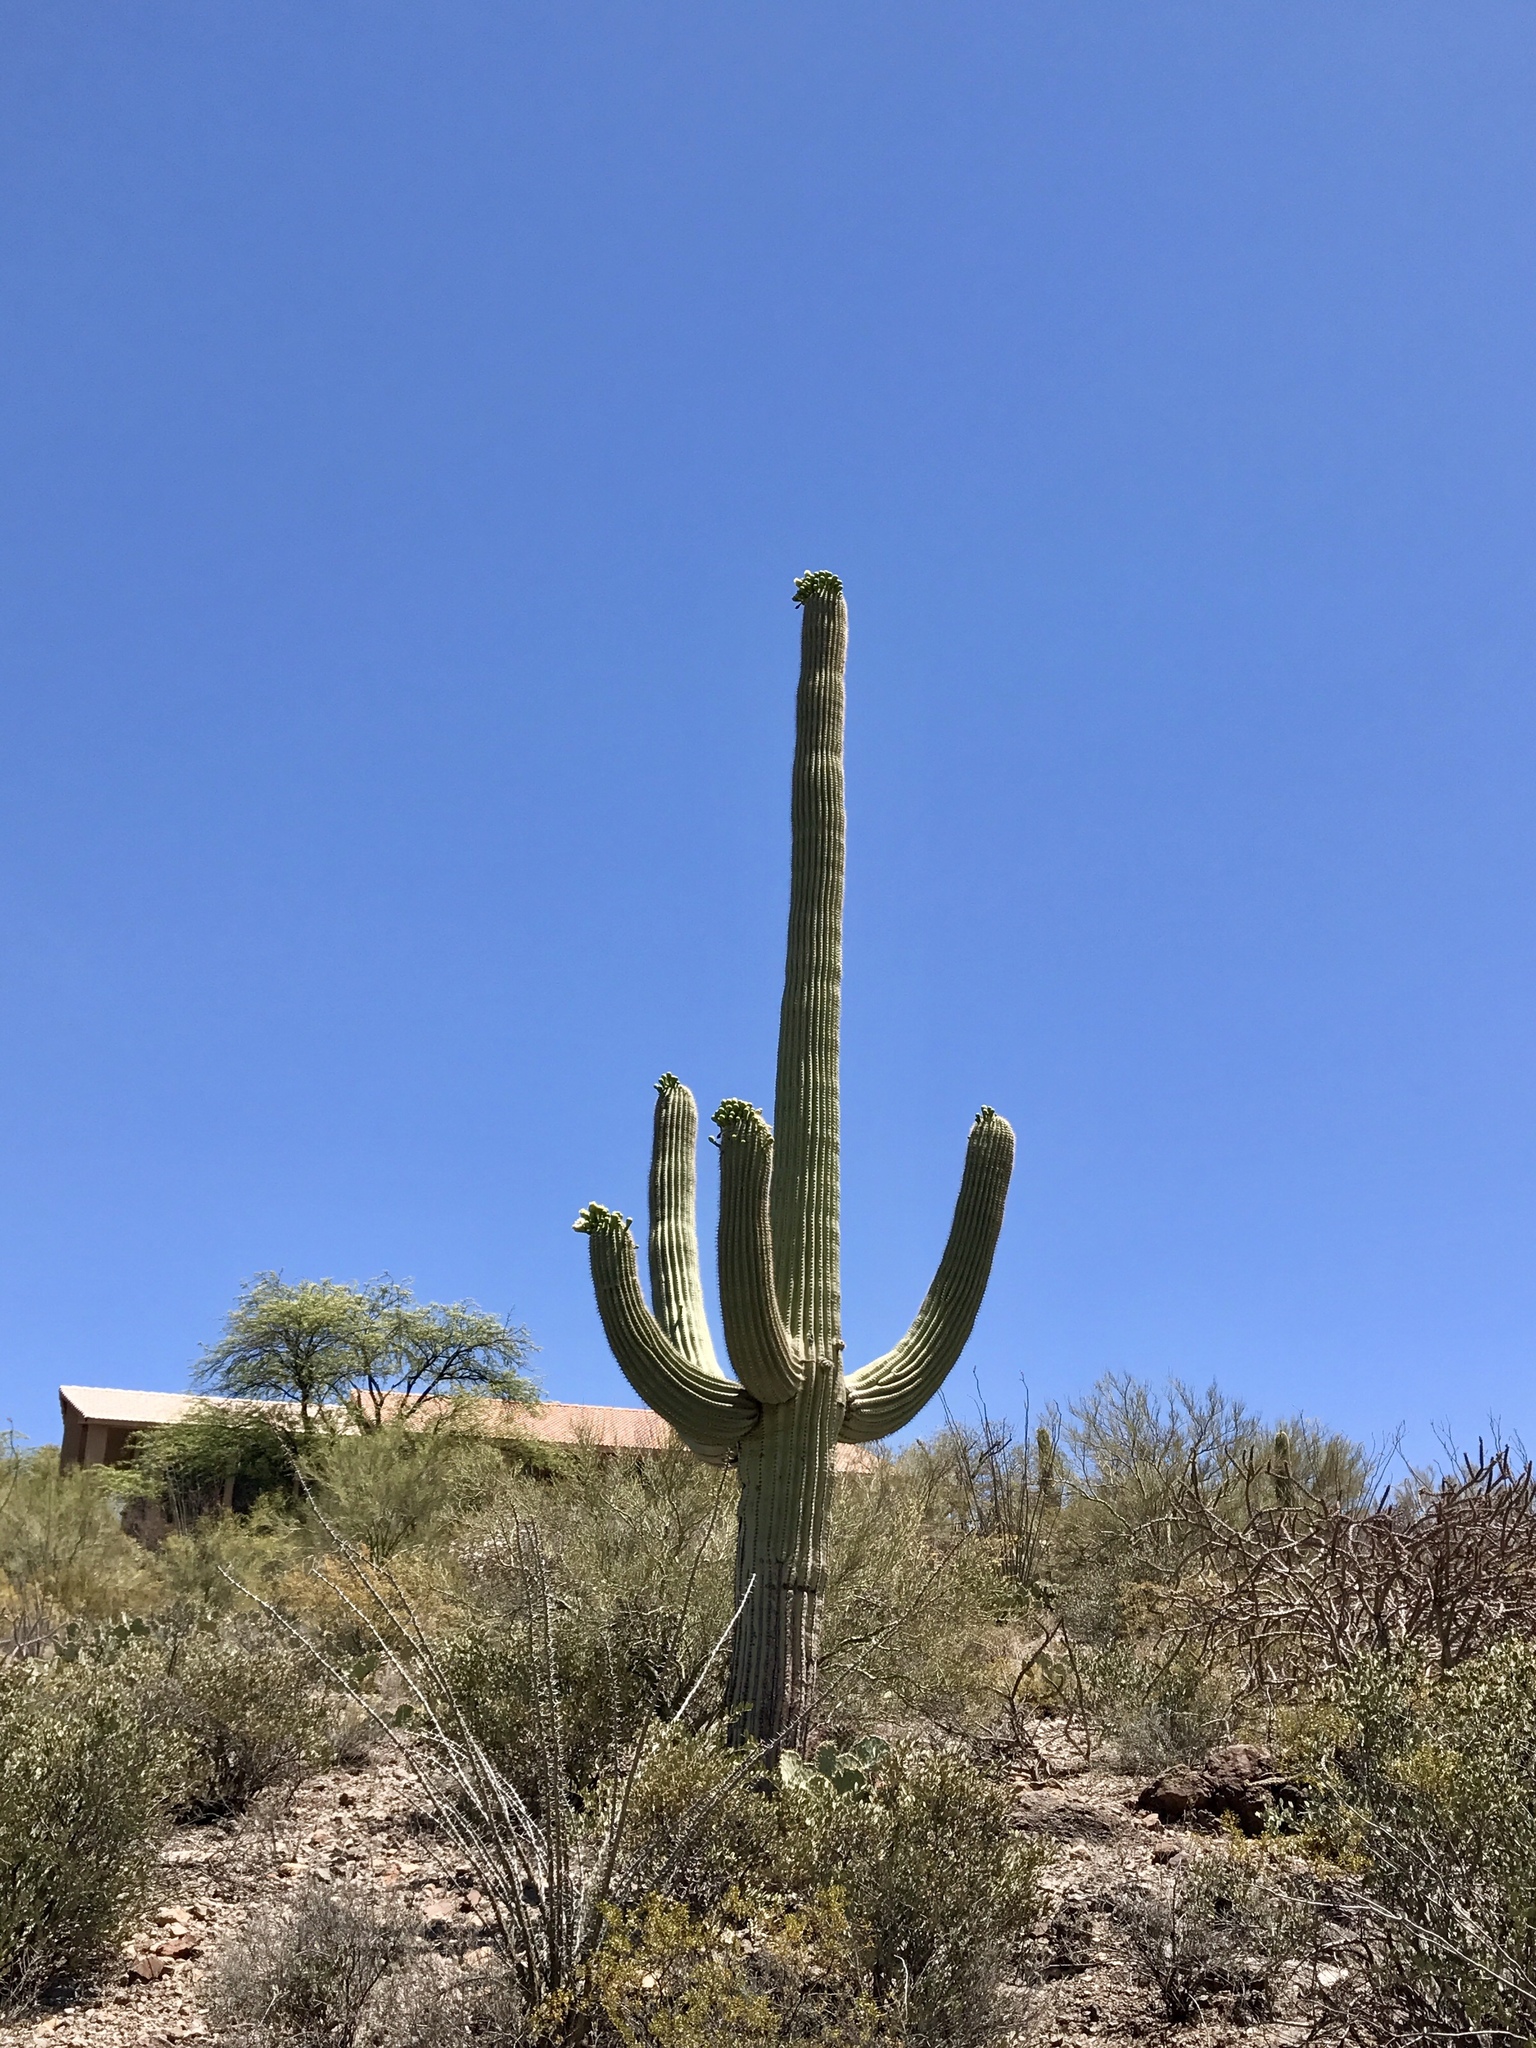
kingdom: Plantae
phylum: Tracheophyta
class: Magnoliopsida
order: Caryophyllales
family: Cactaceae
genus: Carnegiea
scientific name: Carnegiea gigantea
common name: Saguaro
